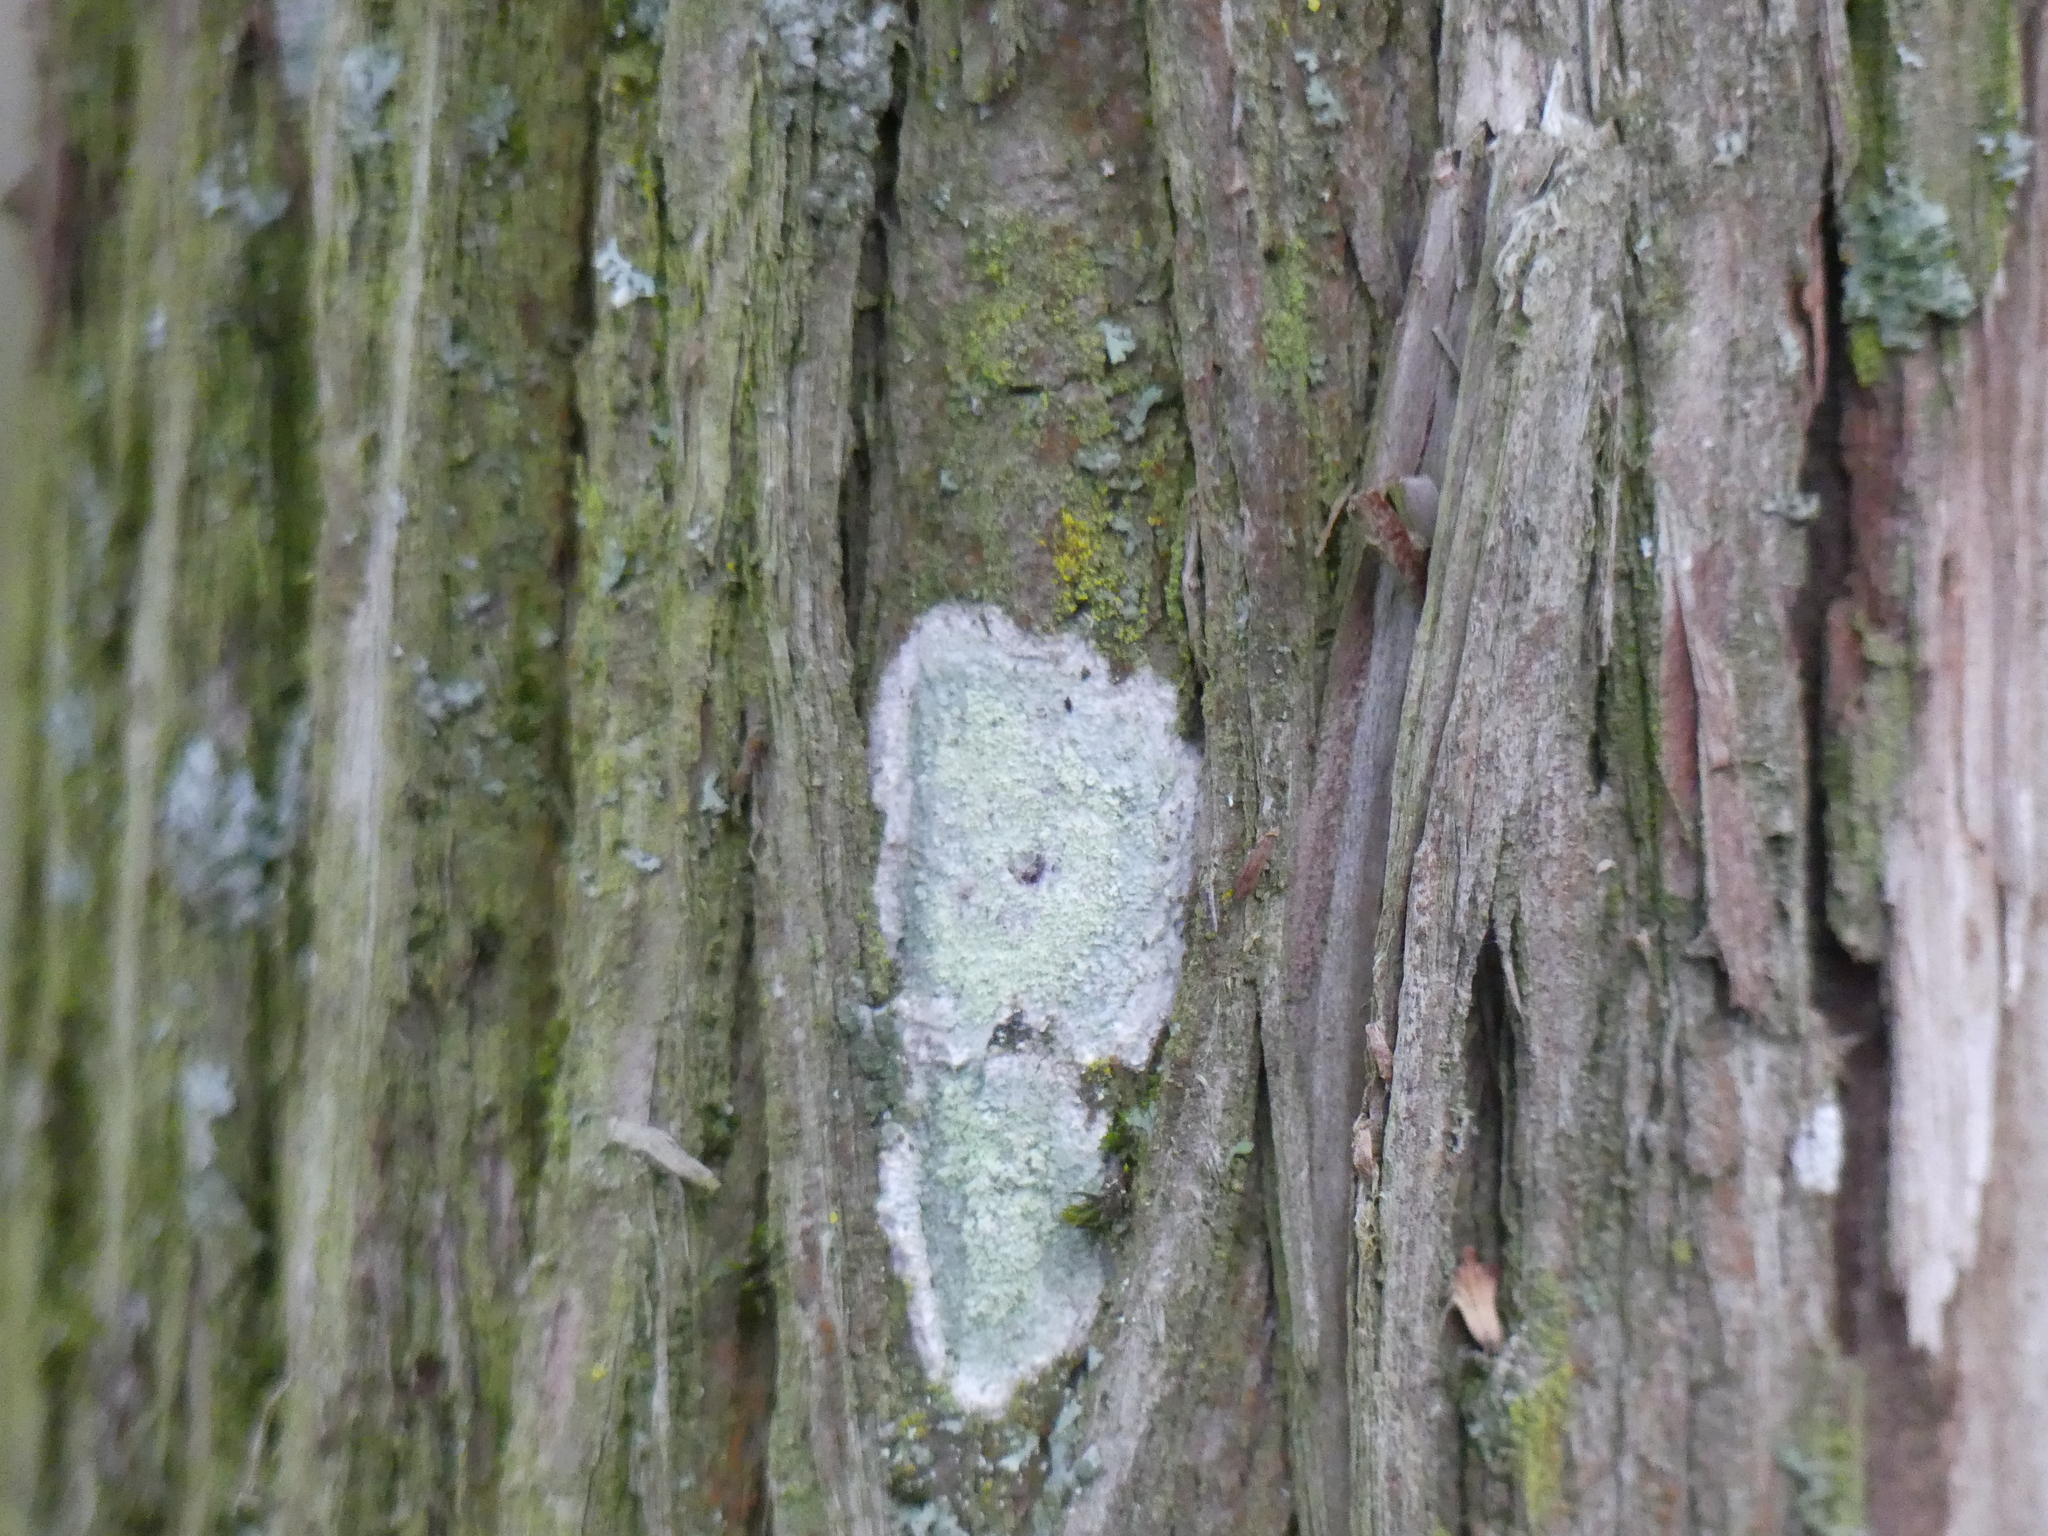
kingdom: Fungi
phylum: Ascomycota
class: Lecanoromycetes
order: Ostropales
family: Phlyctidaceae
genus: Phlyctis
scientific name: Phlyctis argena
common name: Whitewash lichen
